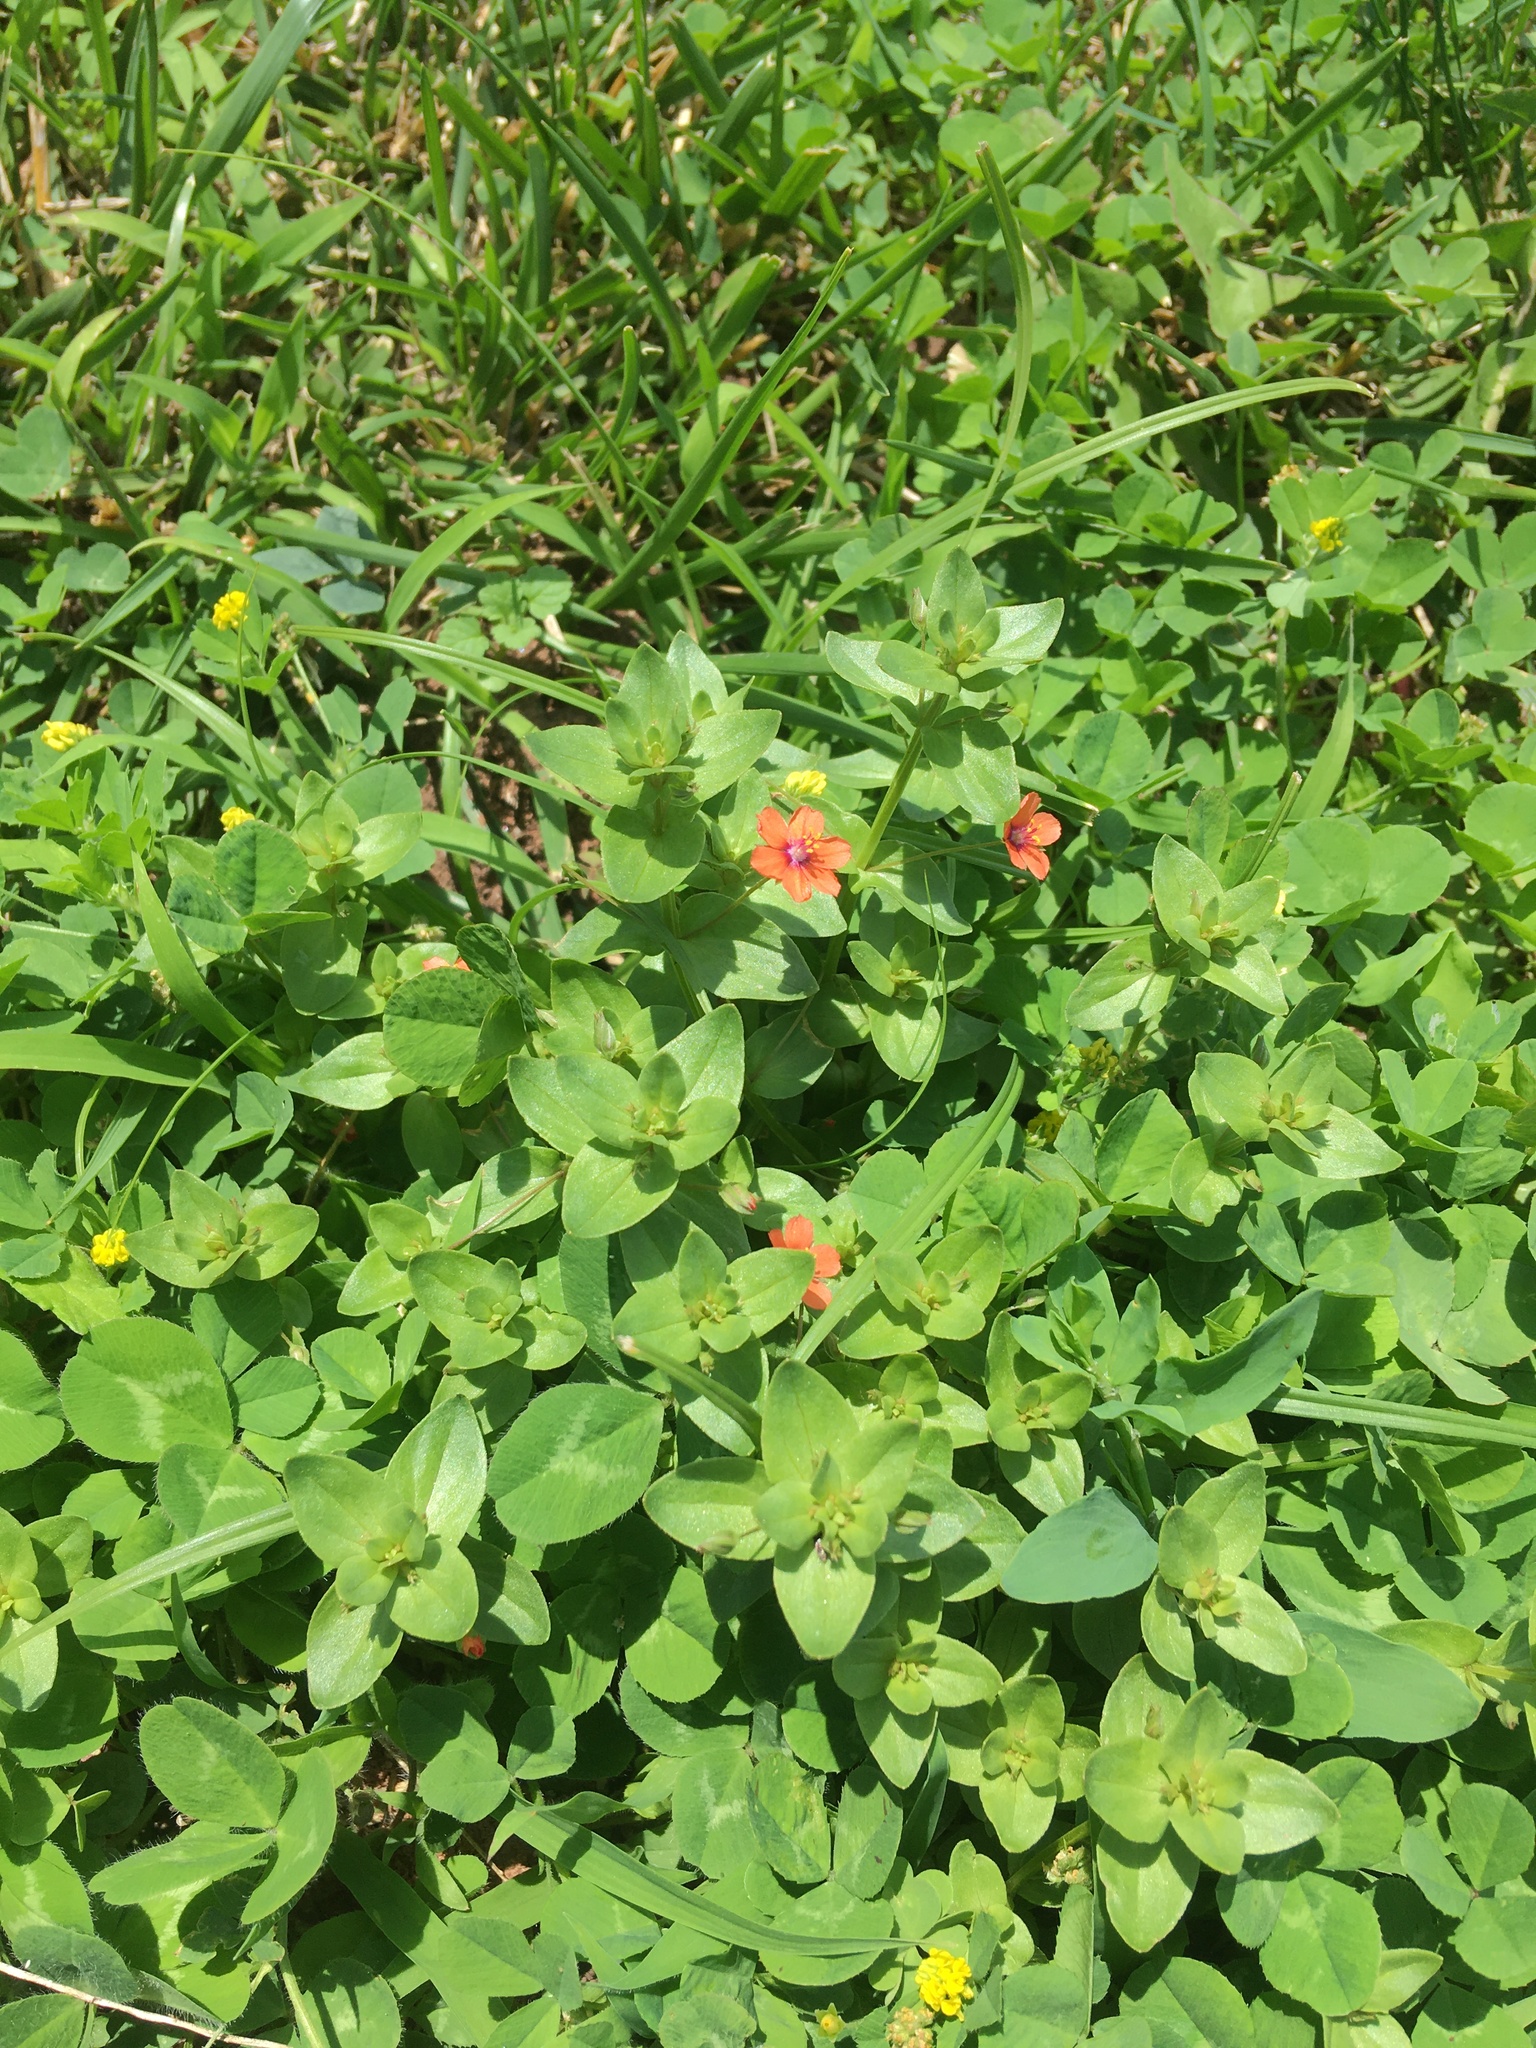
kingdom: Plantae
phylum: Tracheophyta
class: Magnoliopsida
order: Ericales
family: Primulaceae
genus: Lysimachia
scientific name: Lysimachia arvensis
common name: Scarlet pimpernel
